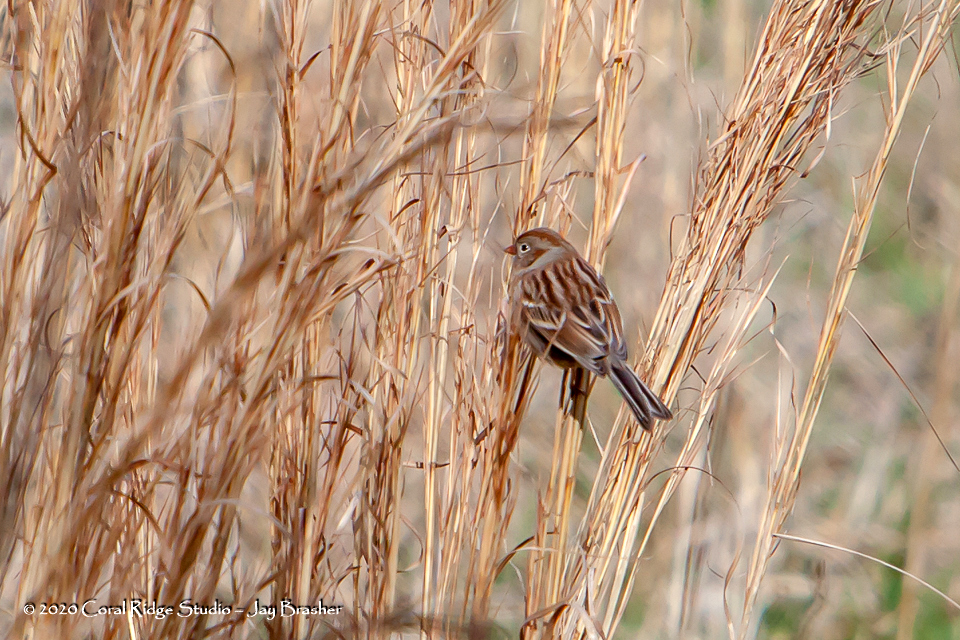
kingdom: Animalia
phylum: Chordata
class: Aves
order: Passeriformes
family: Passerellidae
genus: Spizella
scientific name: Spizella pusilla
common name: Field sparrow
